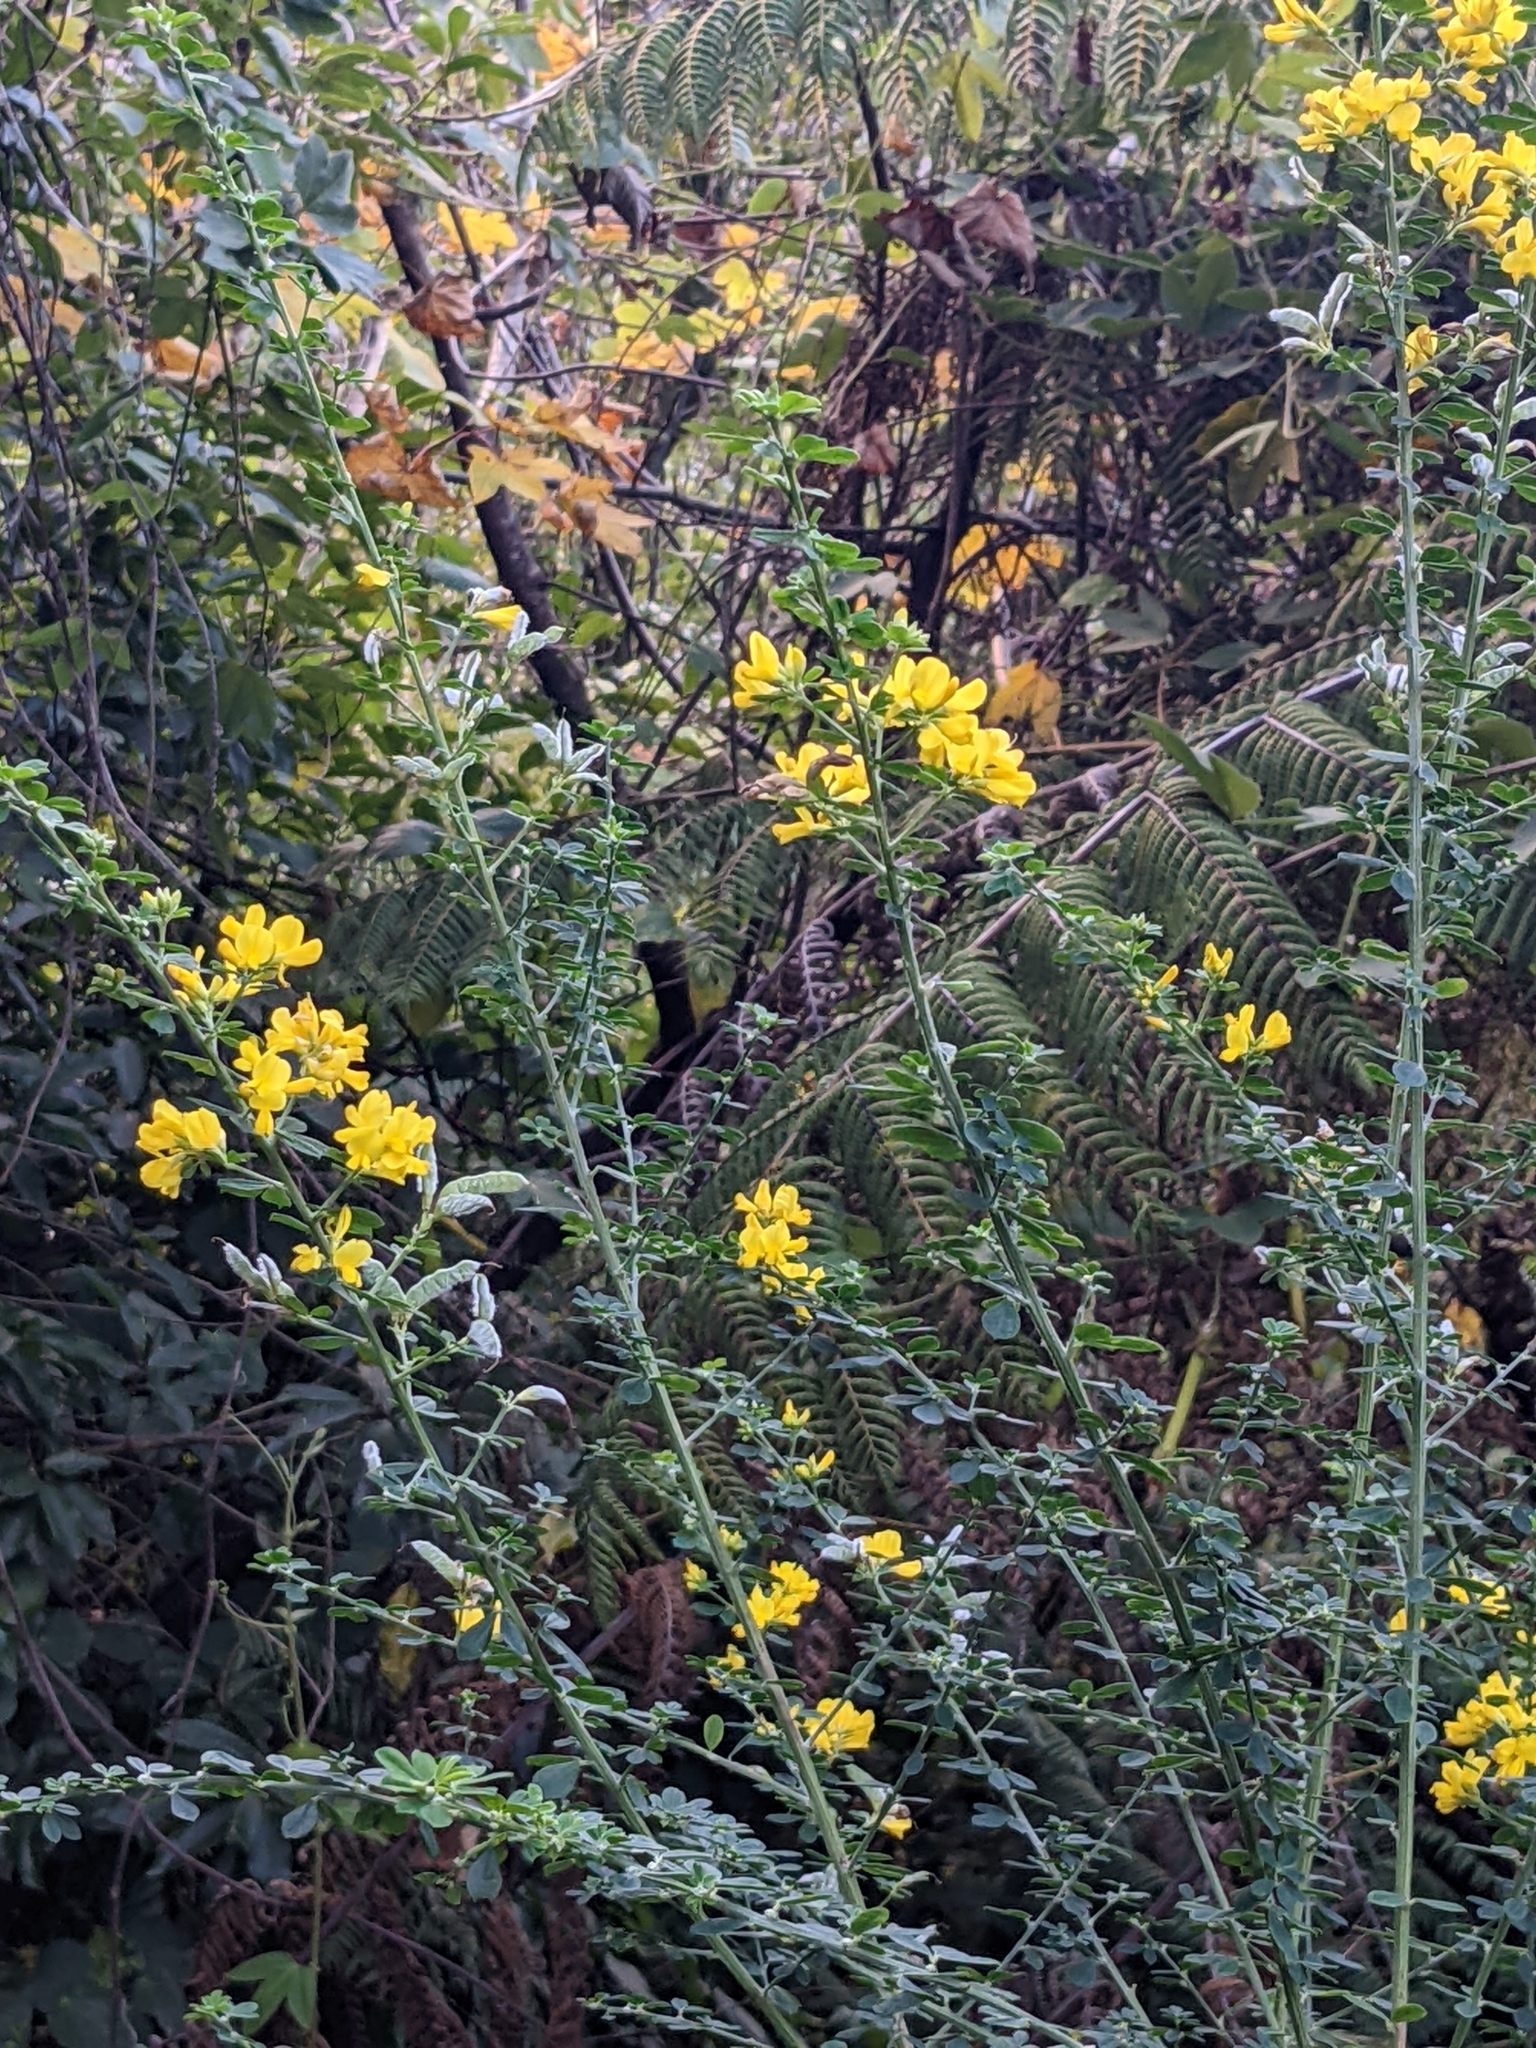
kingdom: Plantae
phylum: Tracheophyta
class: Magnoliopsida
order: Fabales
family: Fabaceae
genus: Genista
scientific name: Genista monspessulana
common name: Montpellier broom
